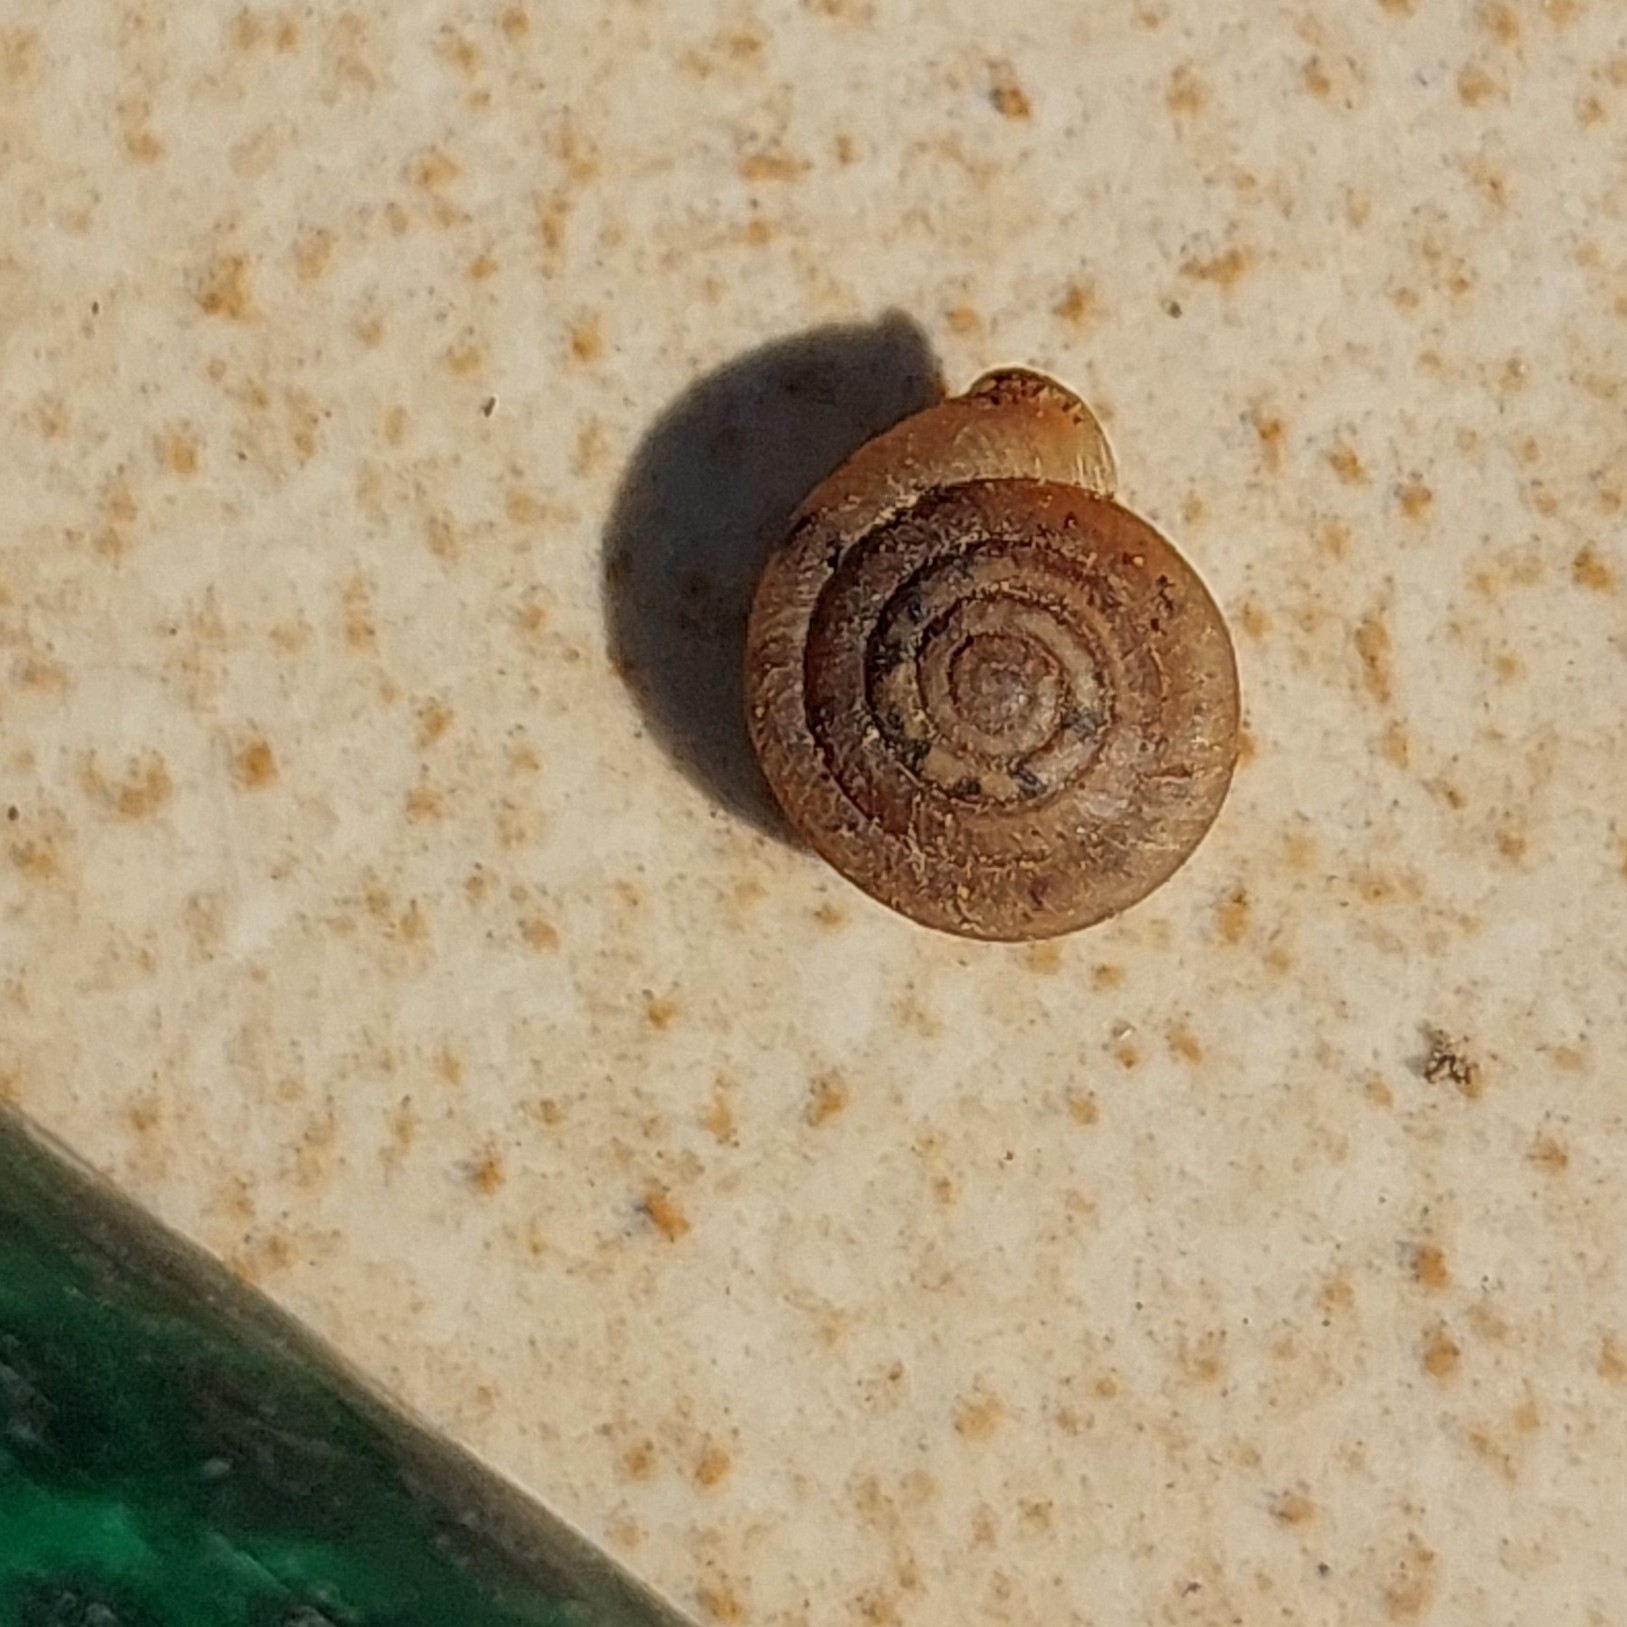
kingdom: Animalia
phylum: Mollusca
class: Gastropoda
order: Stylommatophora
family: Polygyridae
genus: Polygyra
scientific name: Polygyra cereolus
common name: Southern flatcone snail
